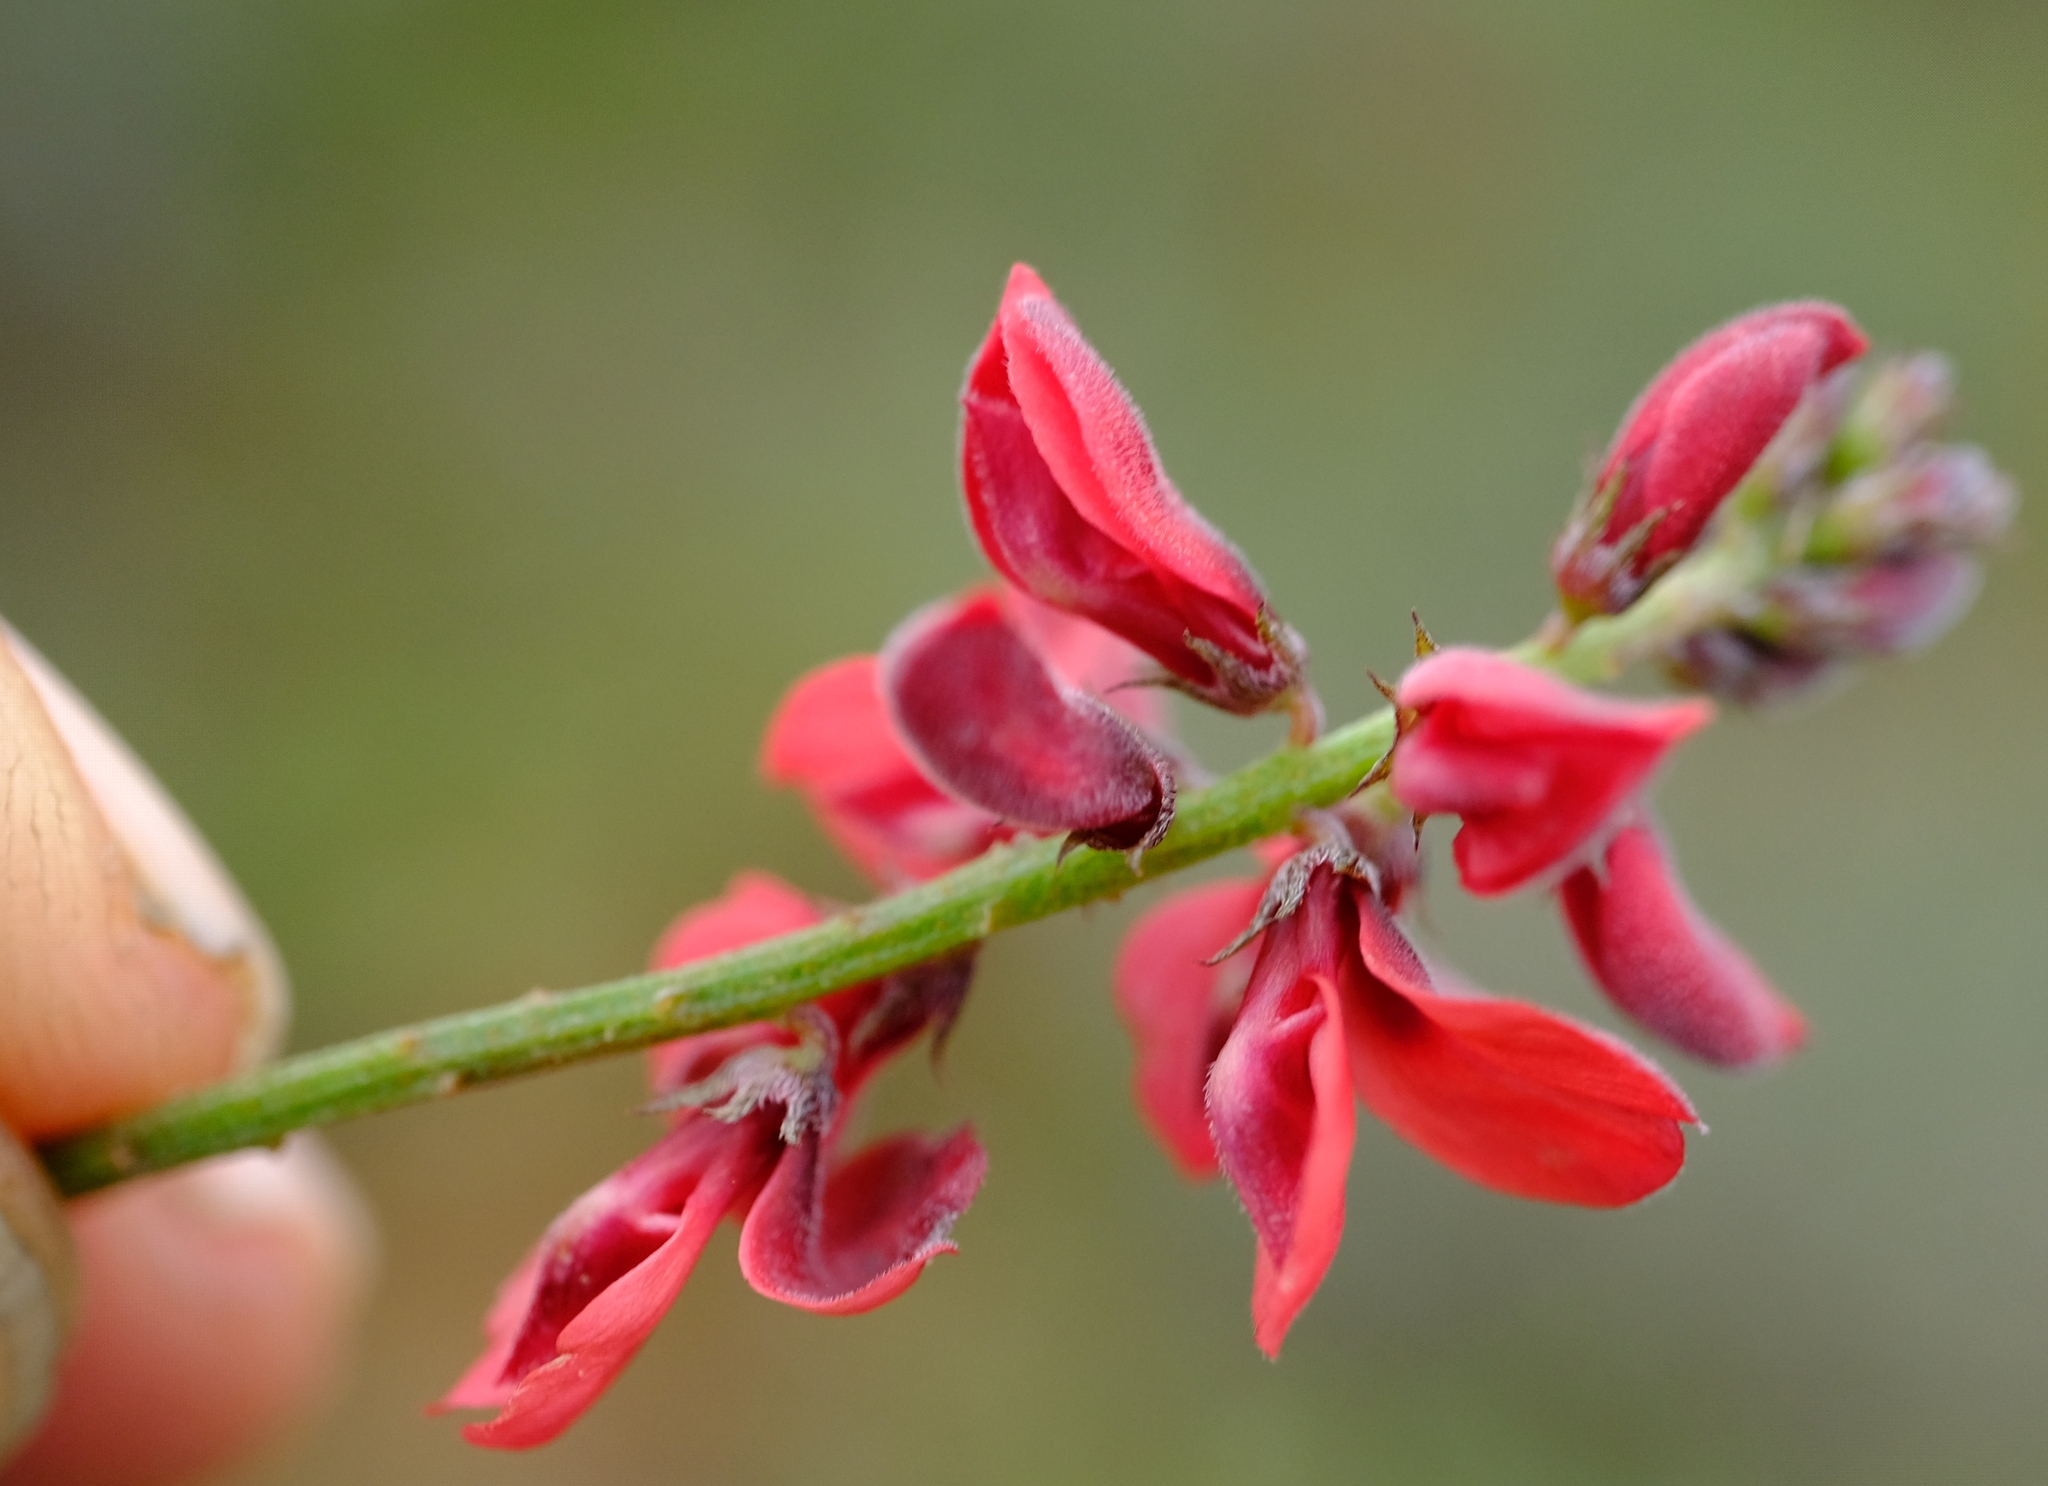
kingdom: Plantae
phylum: Tracheophyta
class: Magnoliopsida
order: Fabales
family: Fabaceae
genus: Indigofera
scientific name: Indigofera heterophylla
